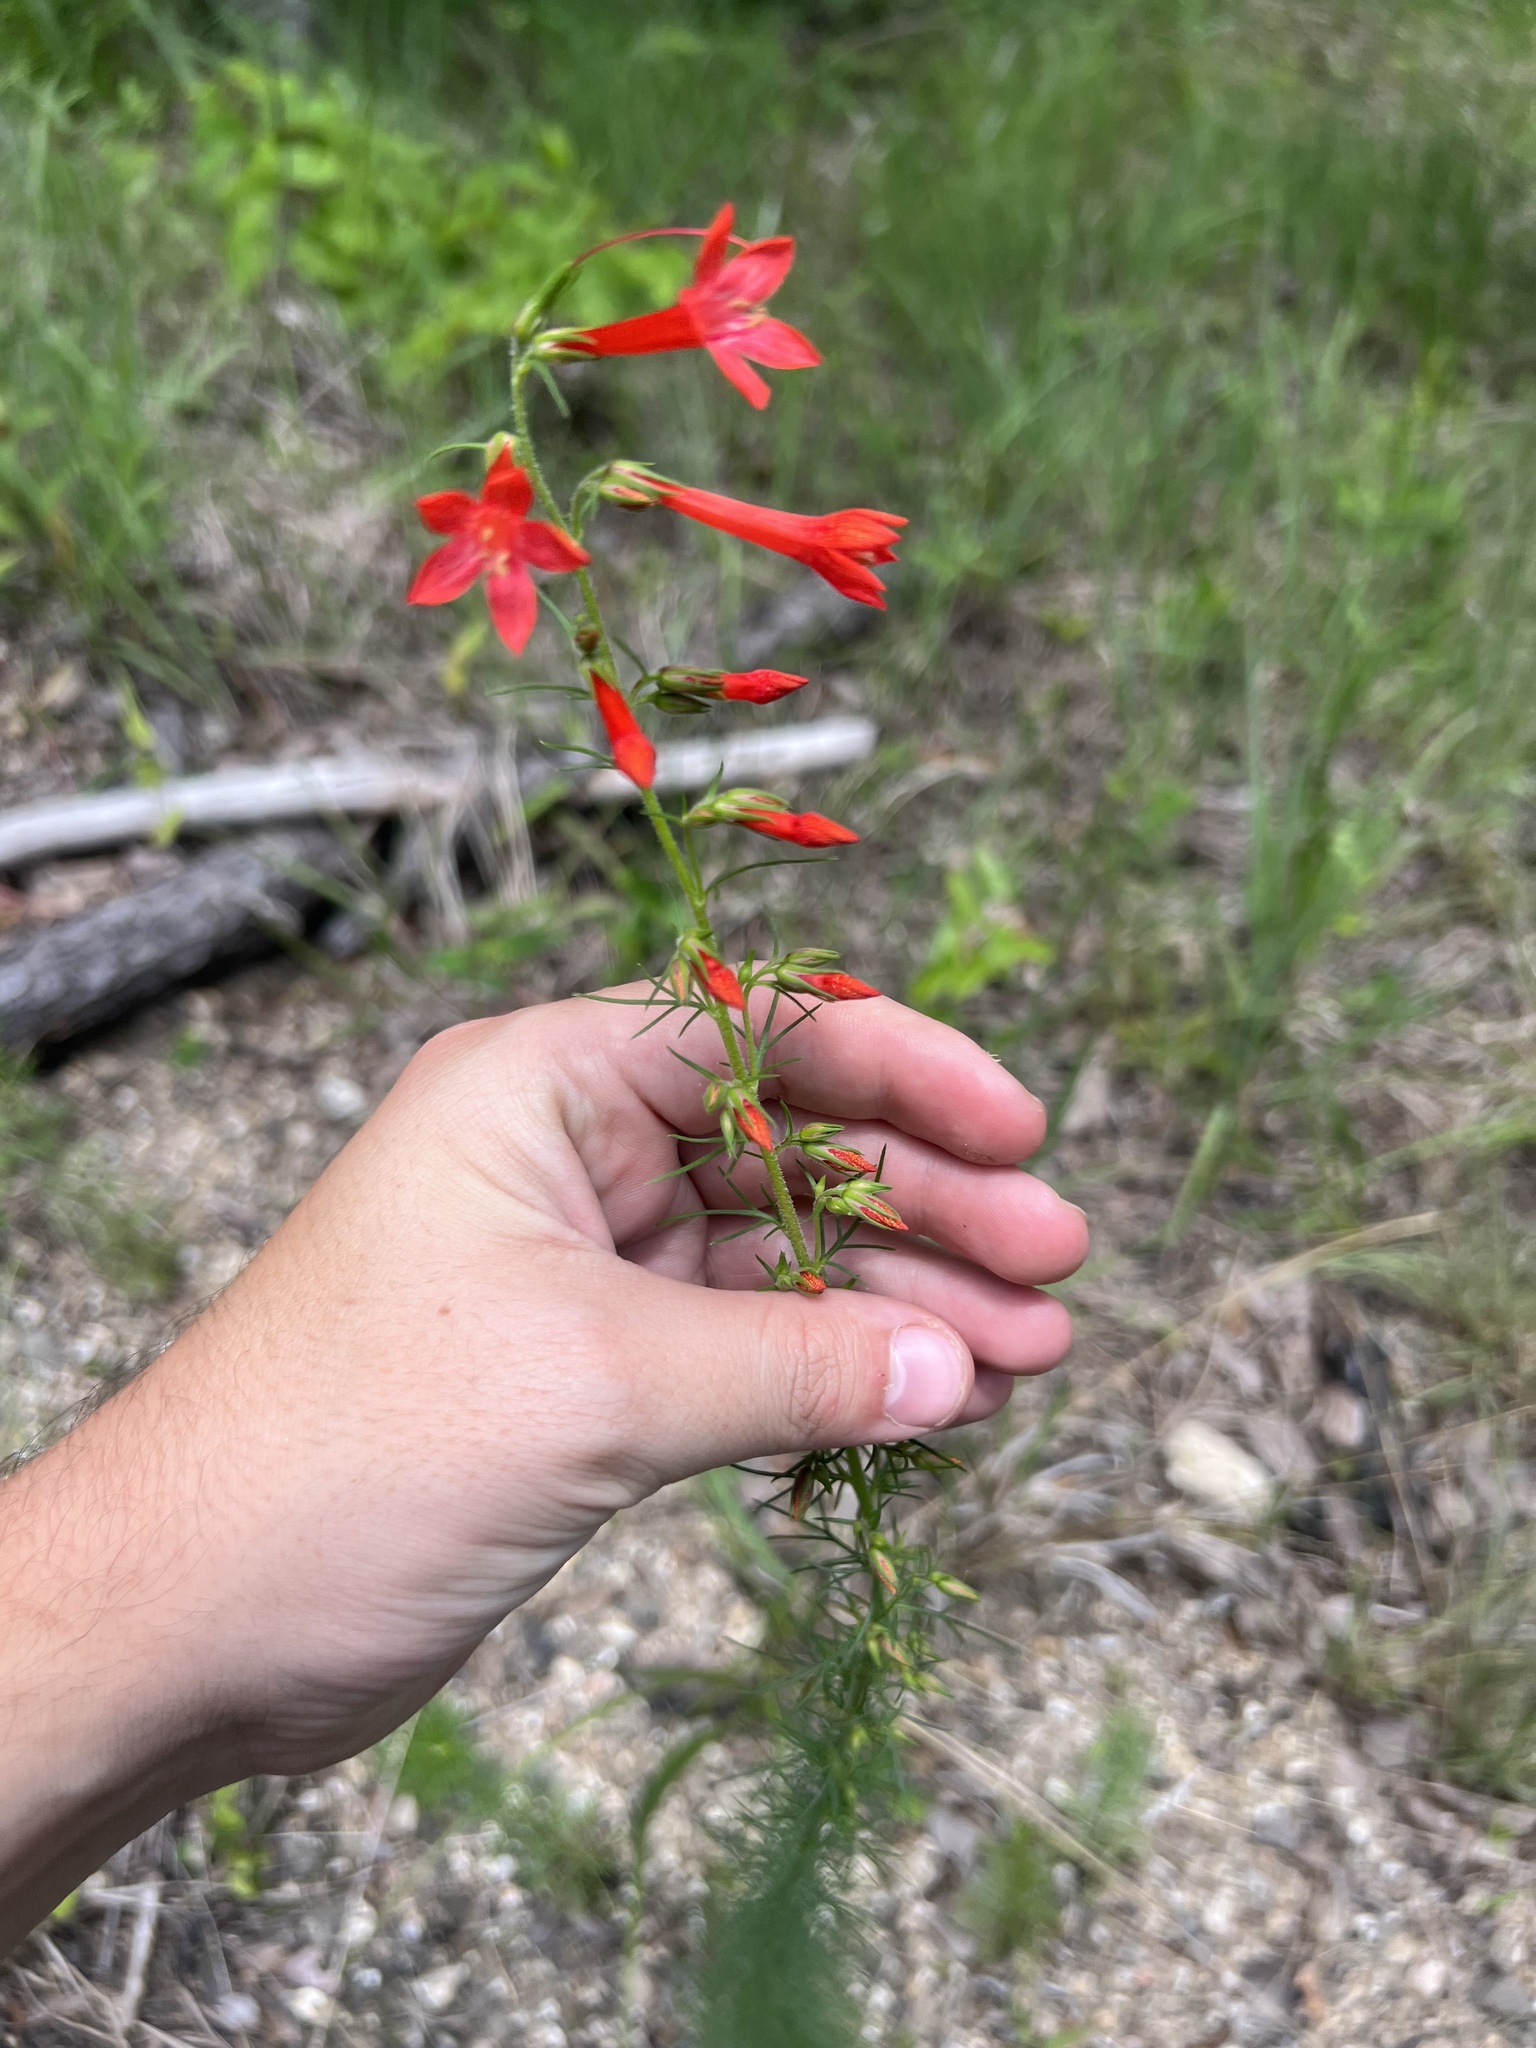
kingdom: Plantae
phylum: Tracheophyta
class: Magnoliopsida
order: Ericales
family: Polemoniaceae
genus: Ipomopsis
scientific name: Ipomopsis rubra
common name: Skyrocket
